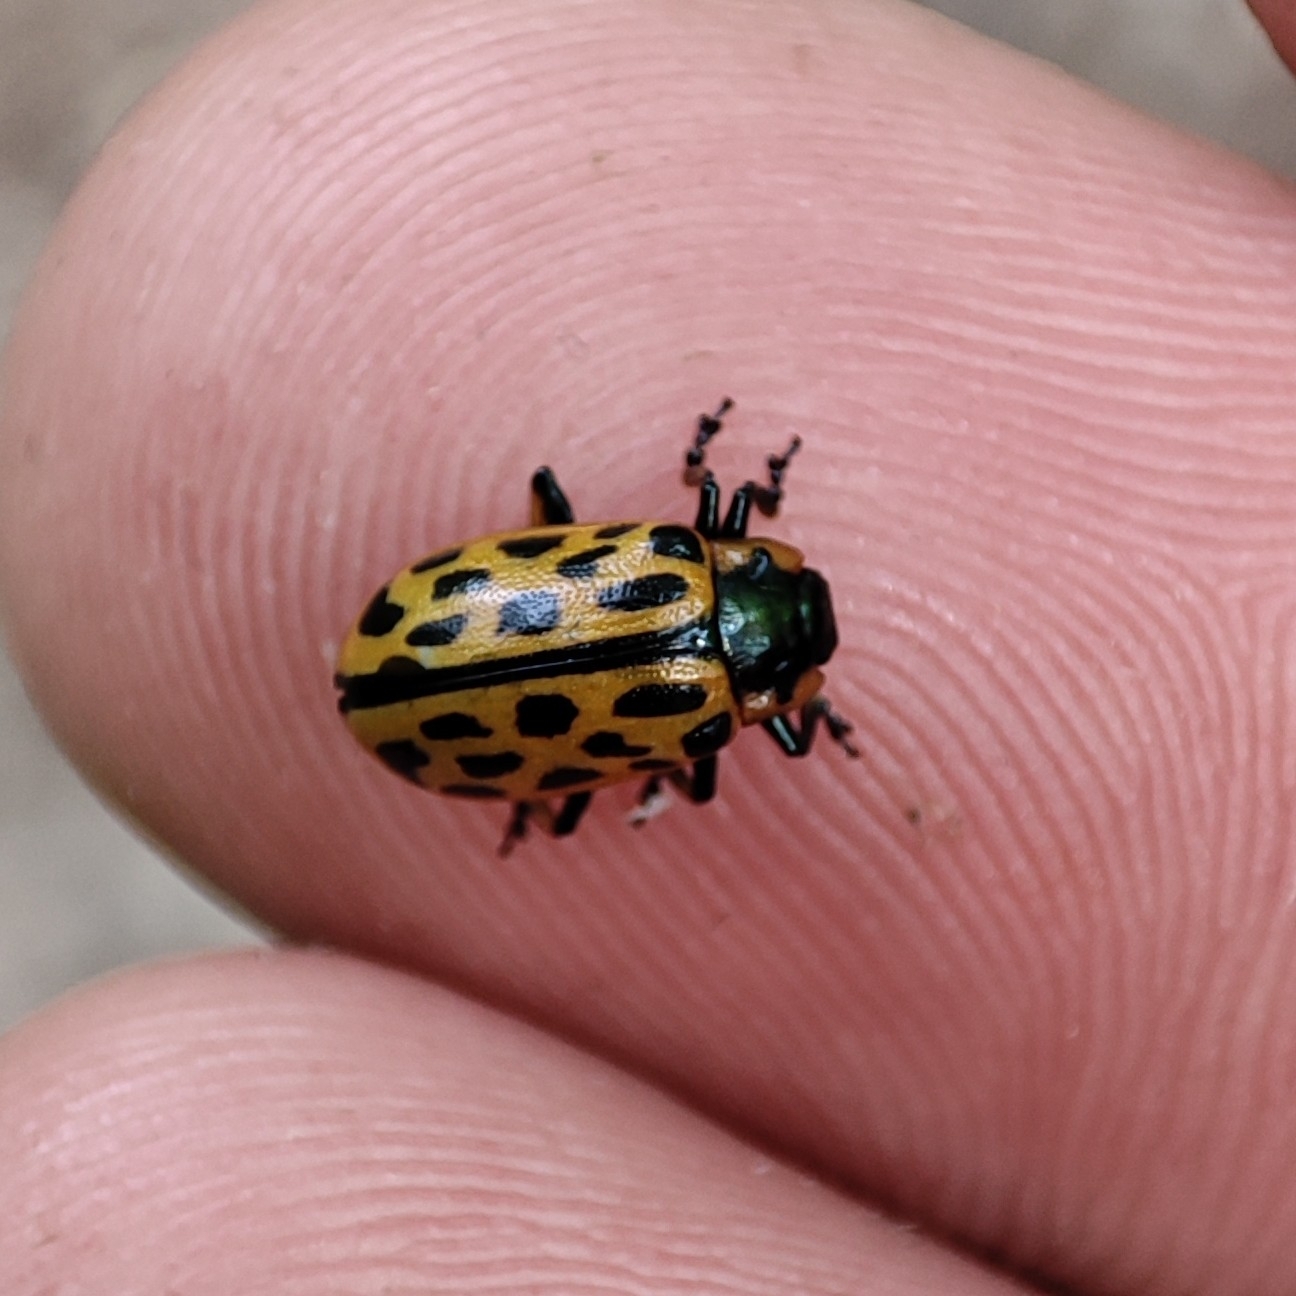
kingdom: Animalia
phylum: Arthropoda
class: Insecta
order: Coleoptera
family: Chrysomelidae
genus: Chrysomela
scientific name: Chrysomela vigintipunctata
